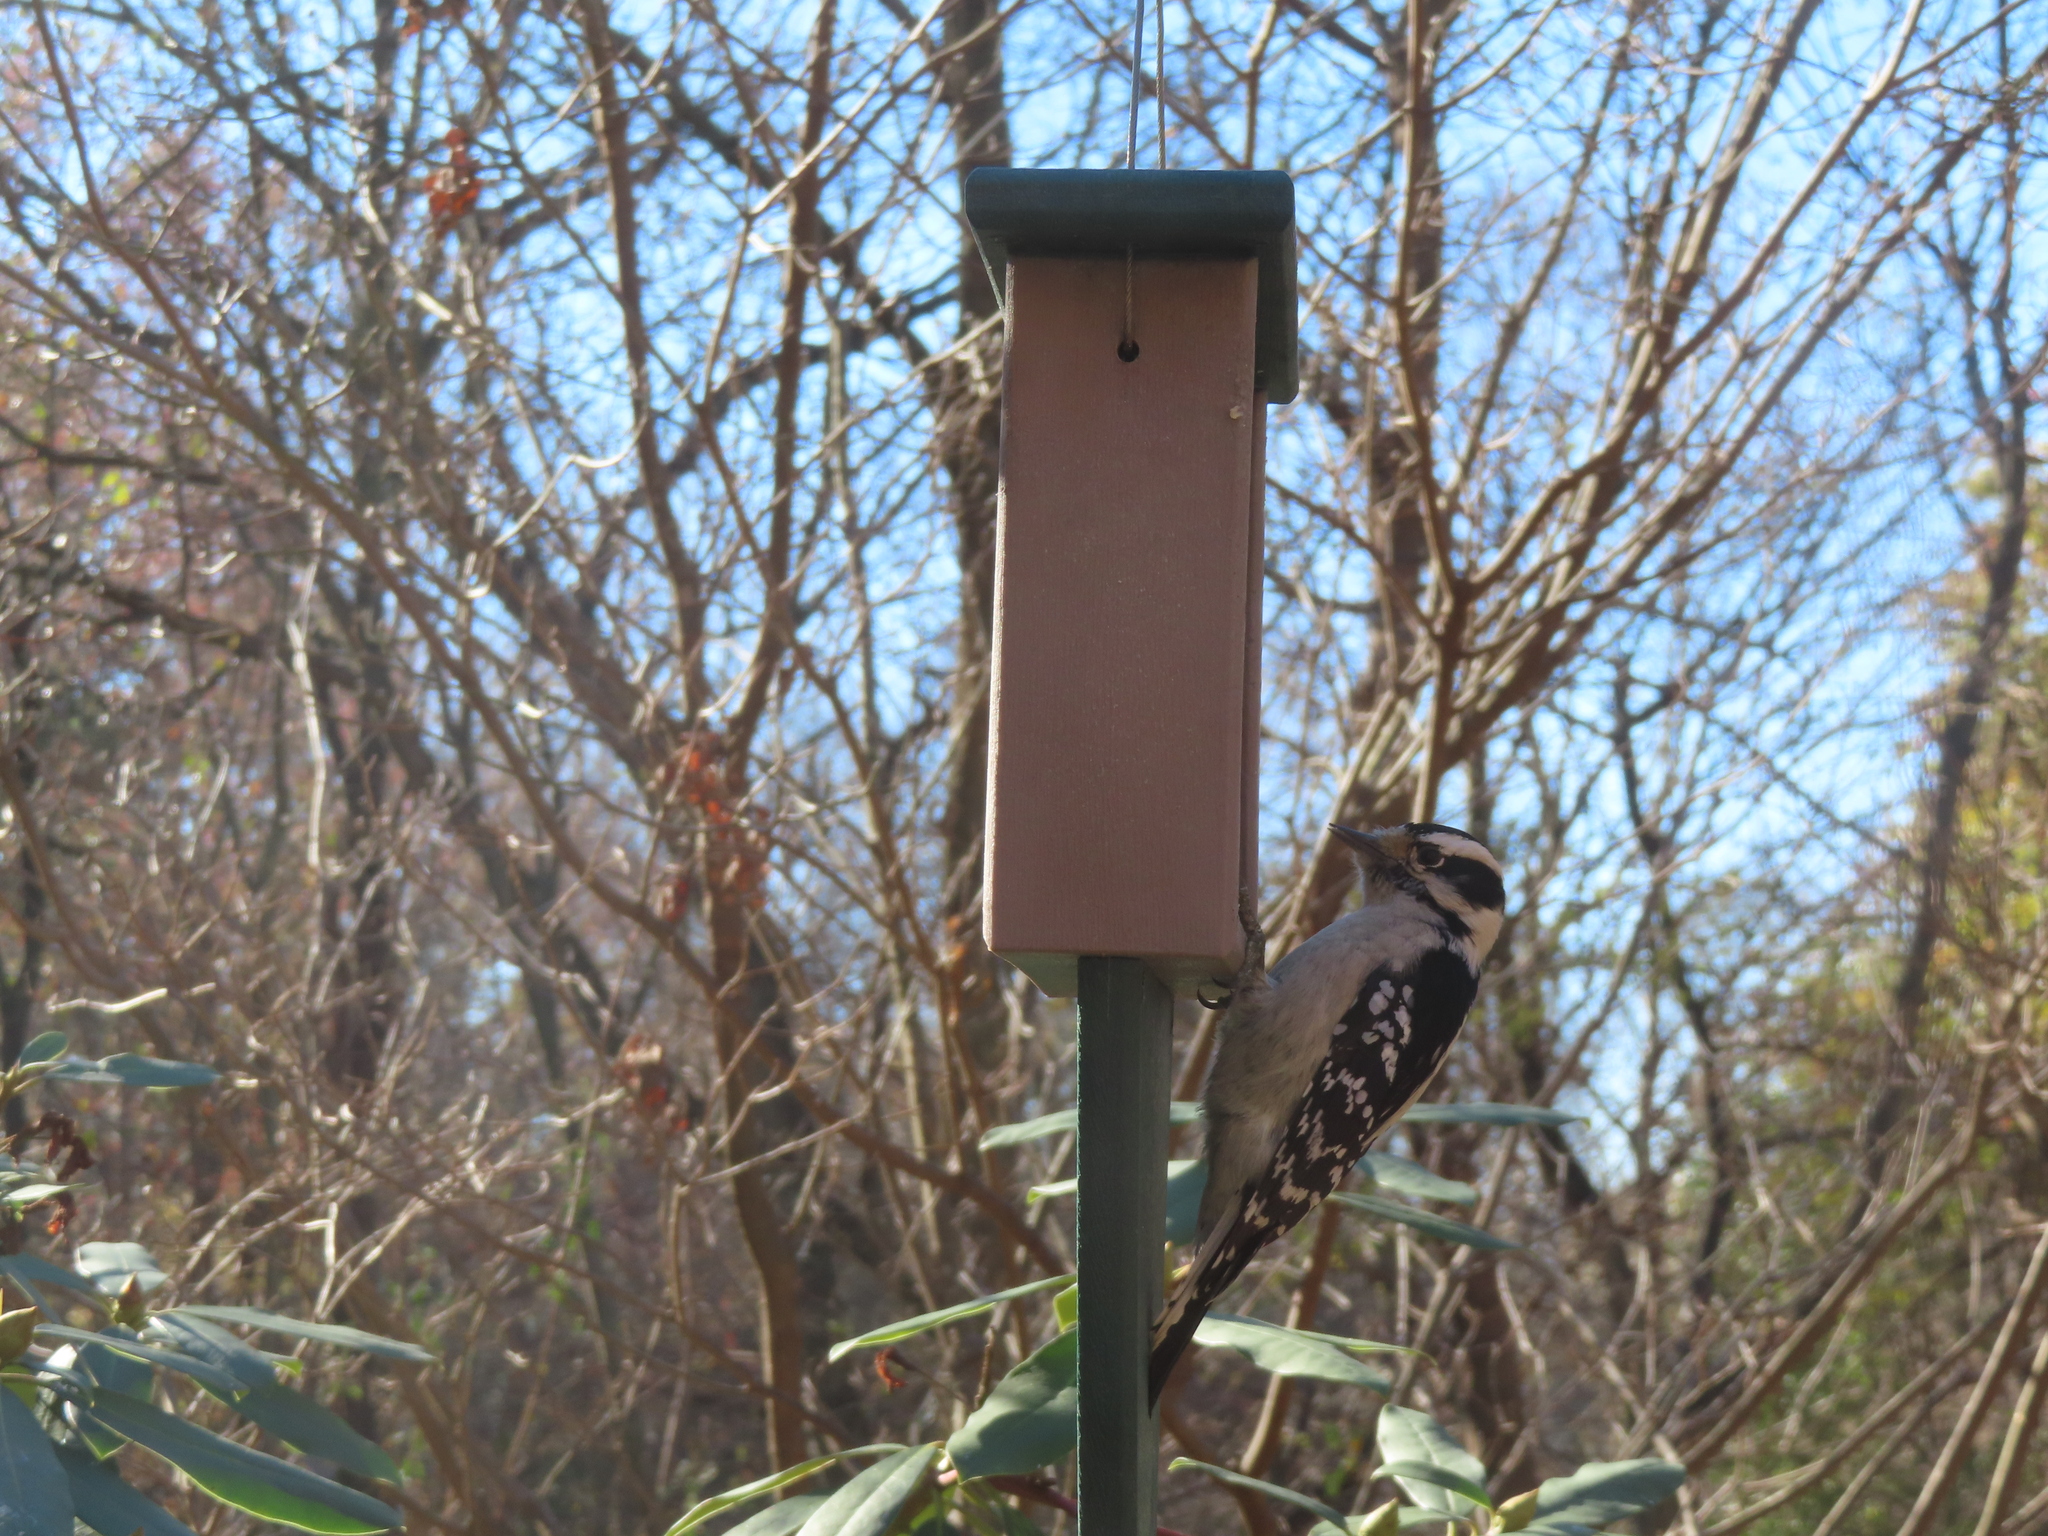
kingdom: Animalia
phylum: Chordata
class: Aves
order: Piciformes
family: Picidae
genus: Dryobates
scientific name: Dryobates pubescens
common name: Downy woodpecker
